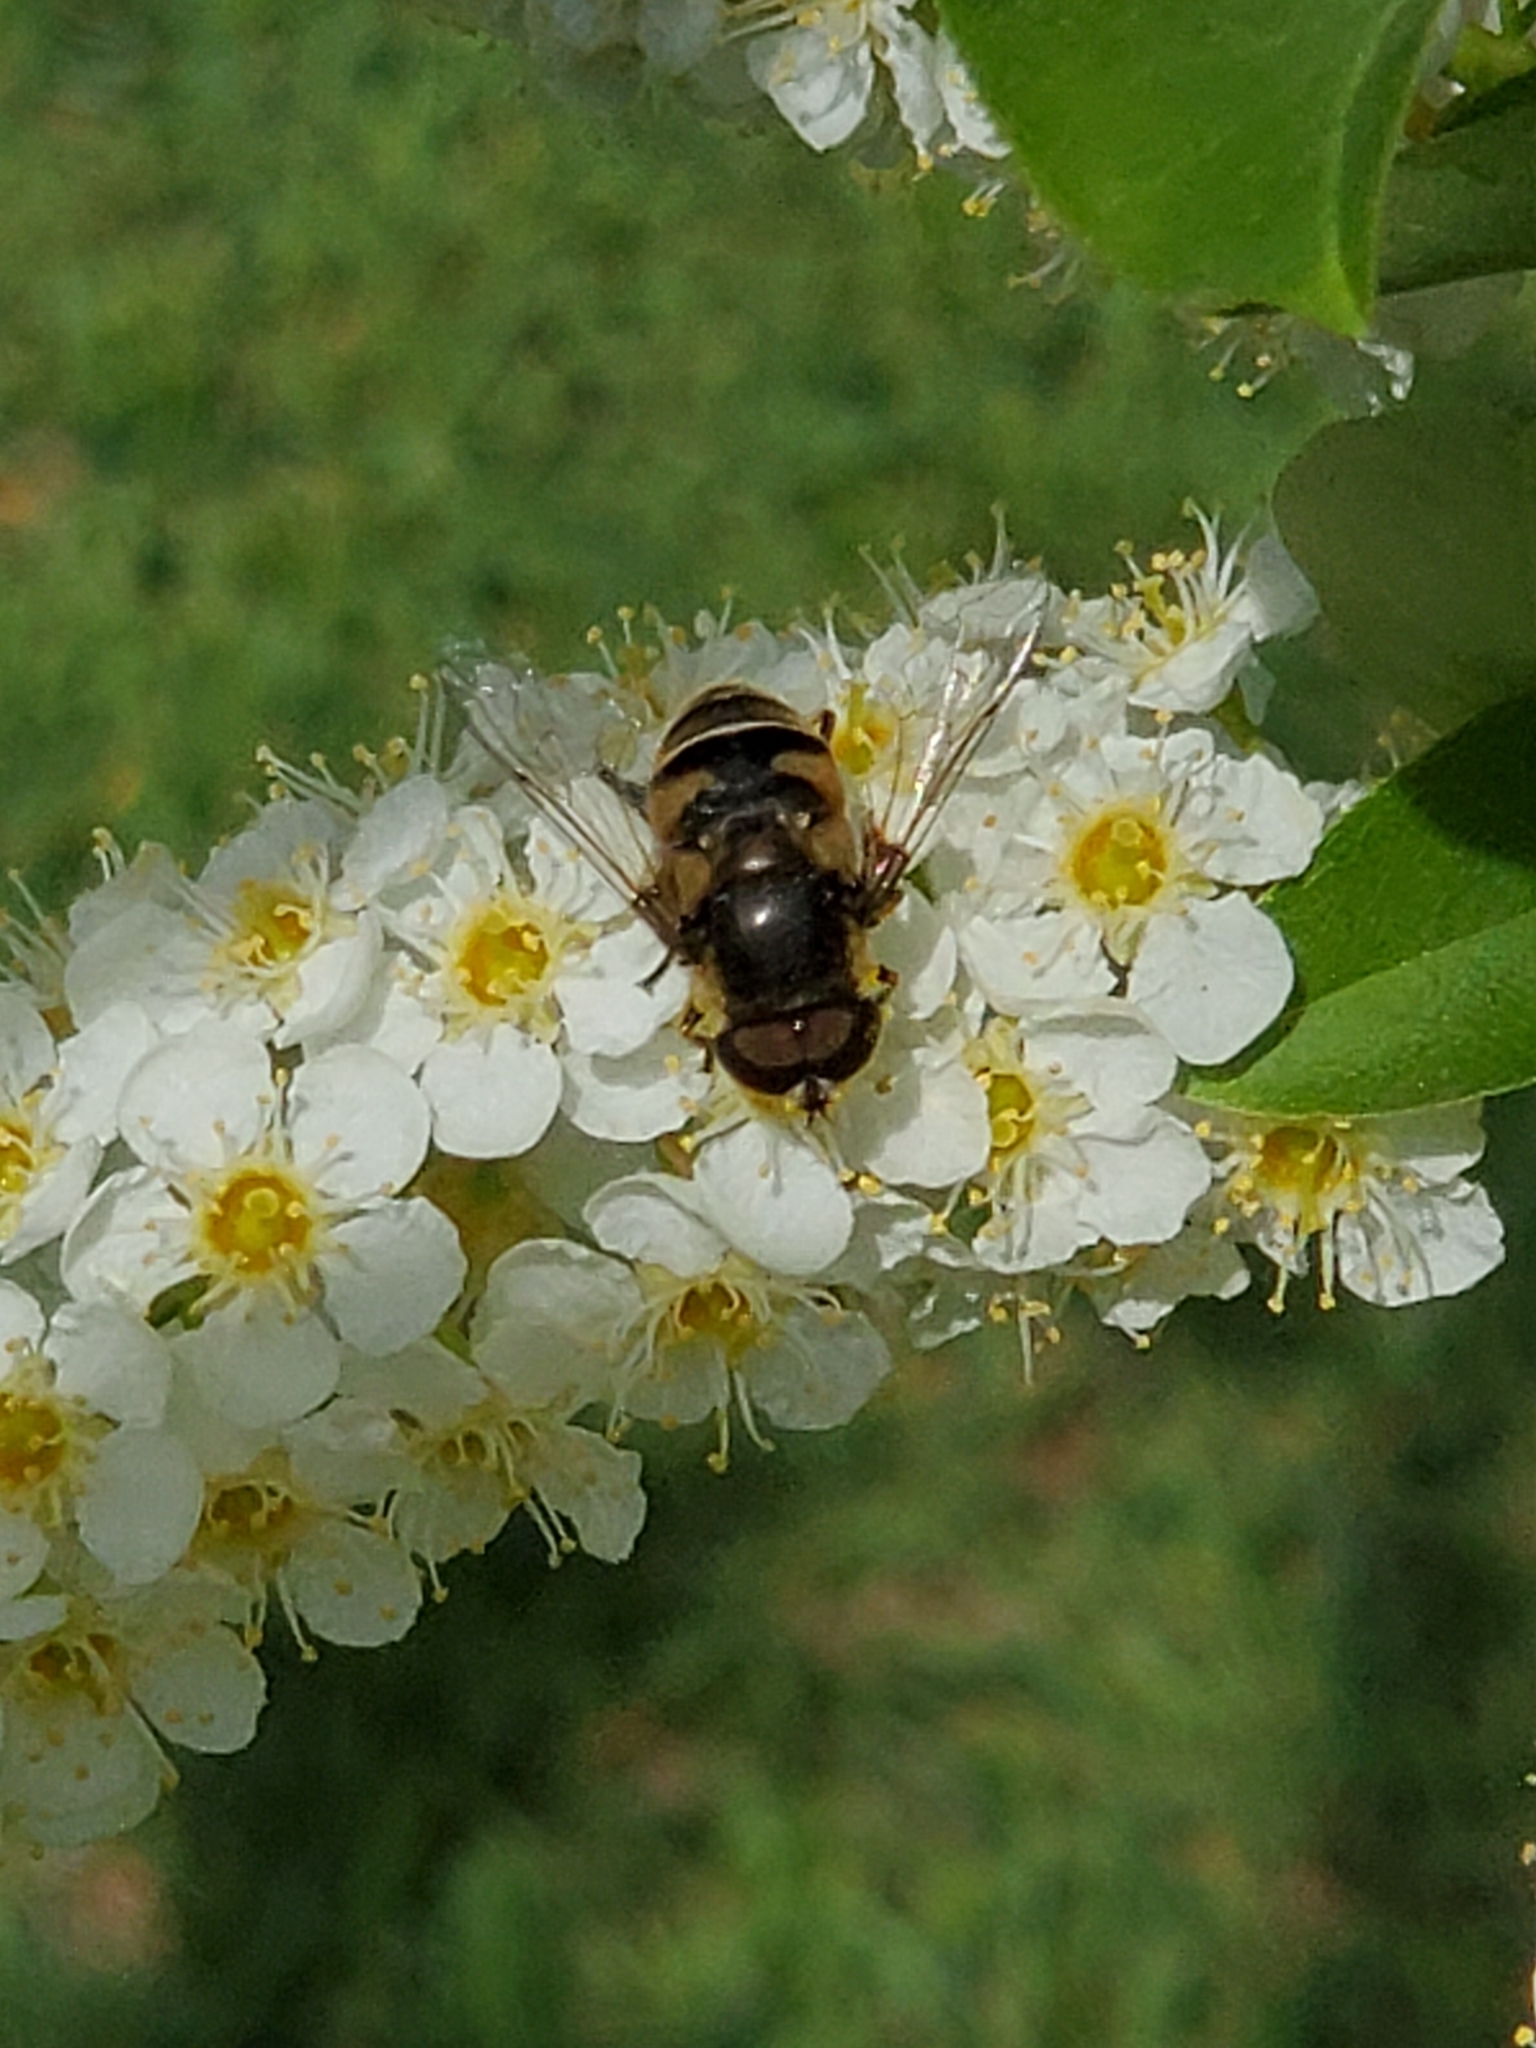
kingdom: Animalia
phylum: Arthropoda
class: Insecta
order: Diptera
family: Syrphidae
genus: Eristalis
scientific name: Eristalis dimidiata
